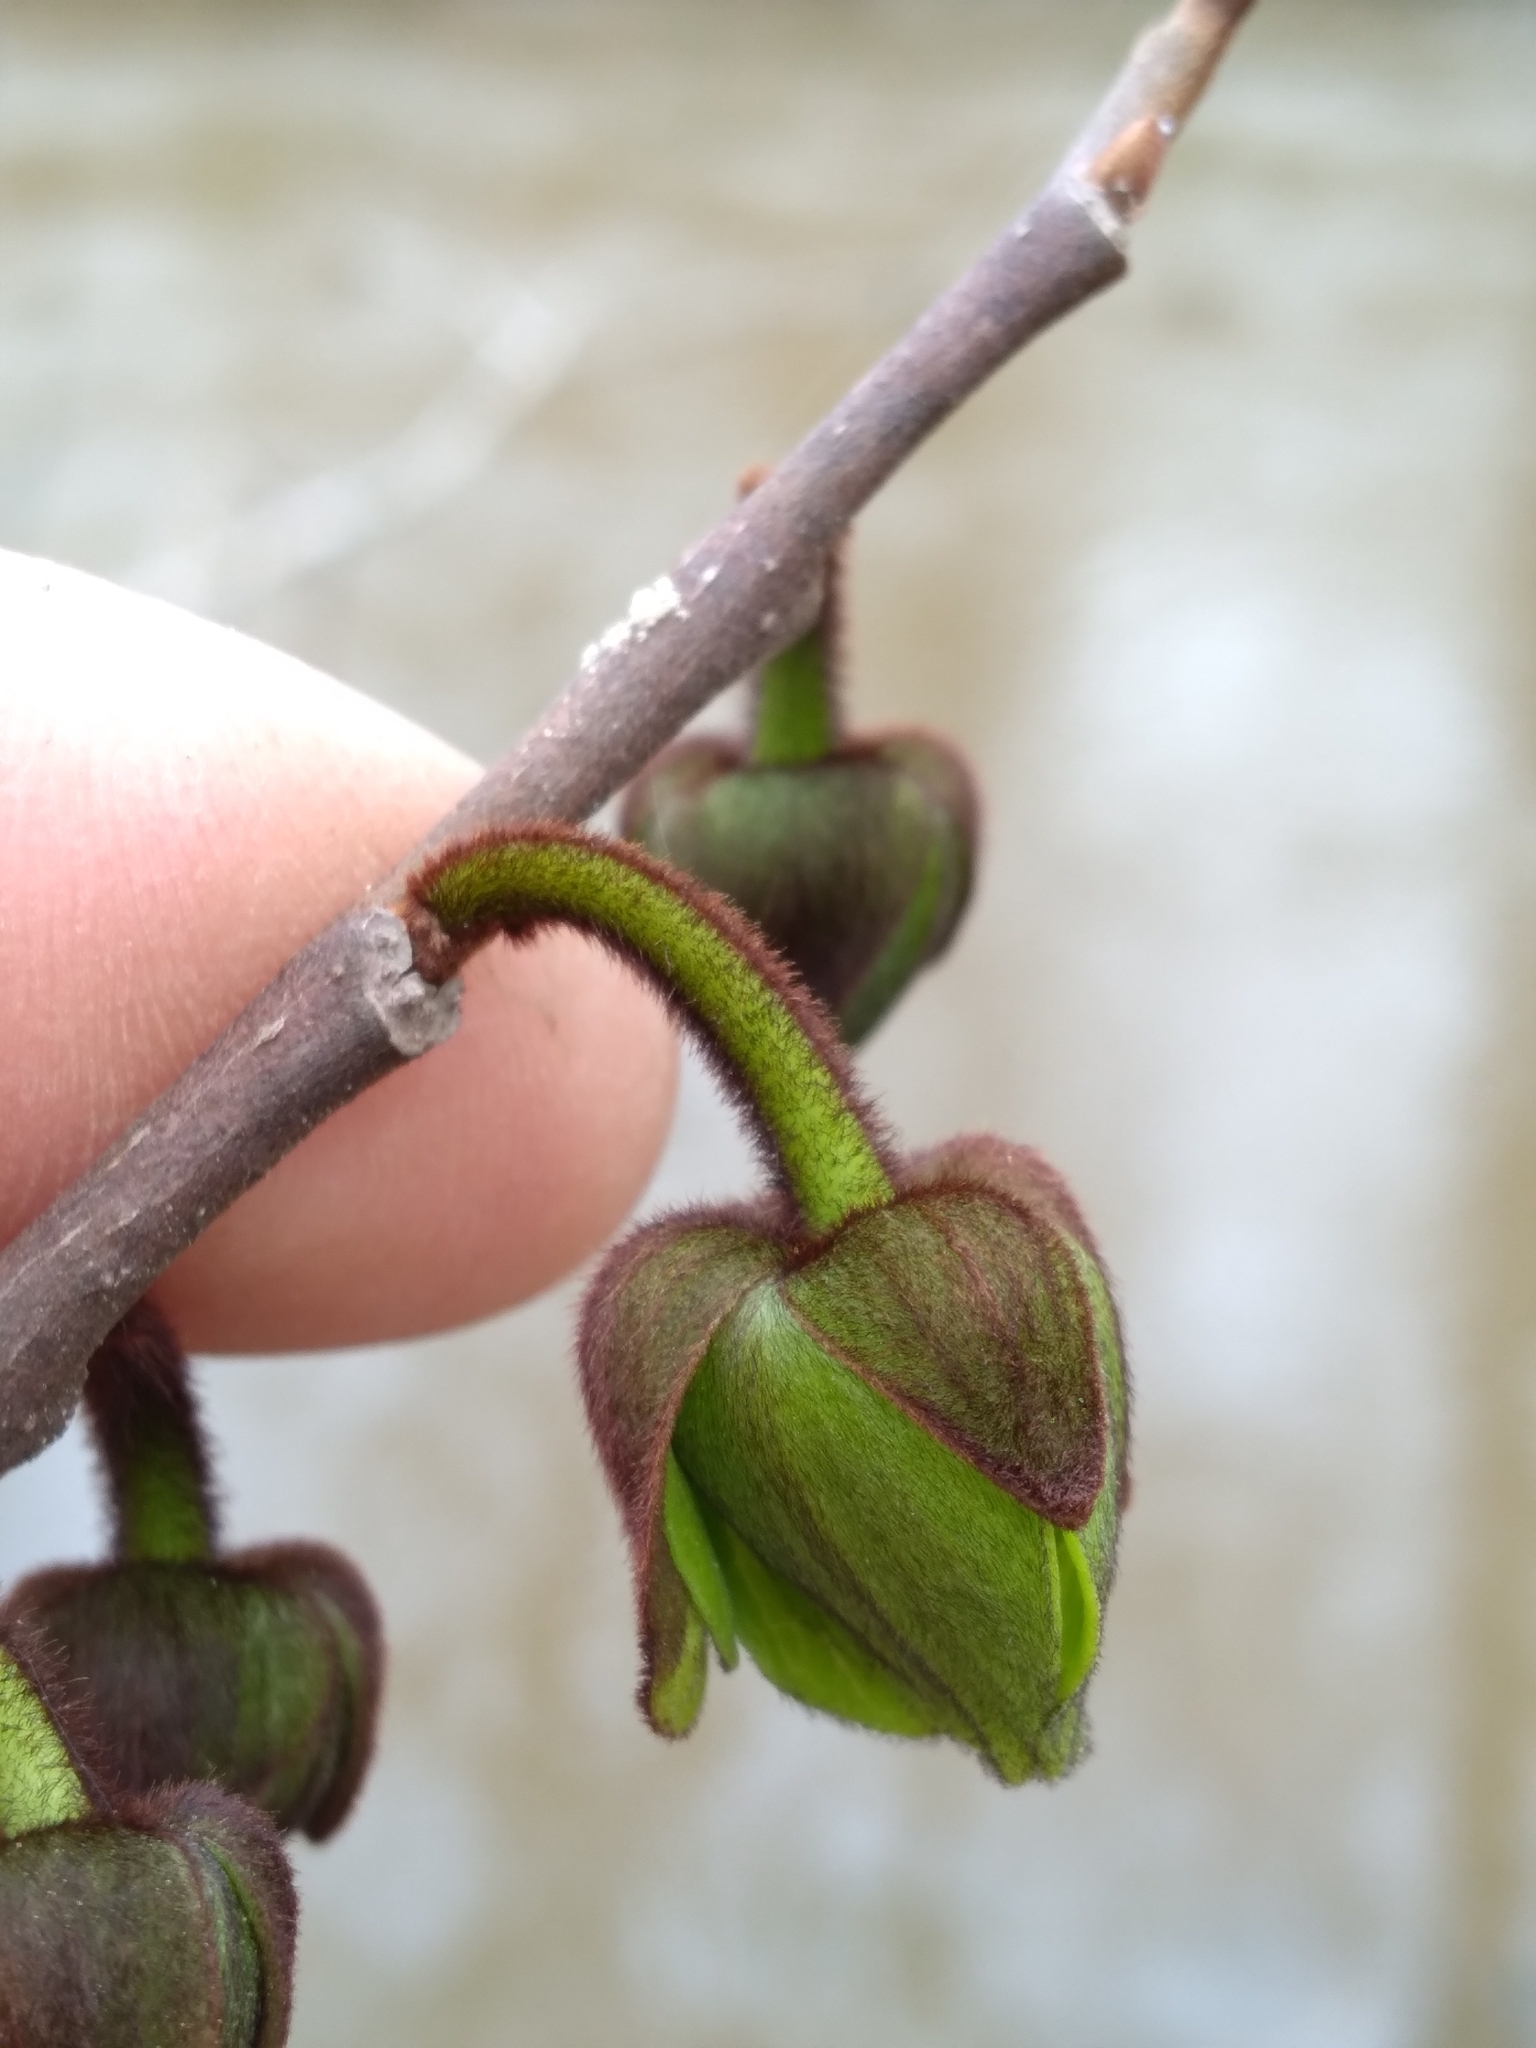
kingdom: Plantae
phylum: Tracheophyta
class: Magnoliopsida
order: Magnoliales
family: Annonaceae
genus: Asimina
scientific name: Asimina triloba
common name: Dog-banana
